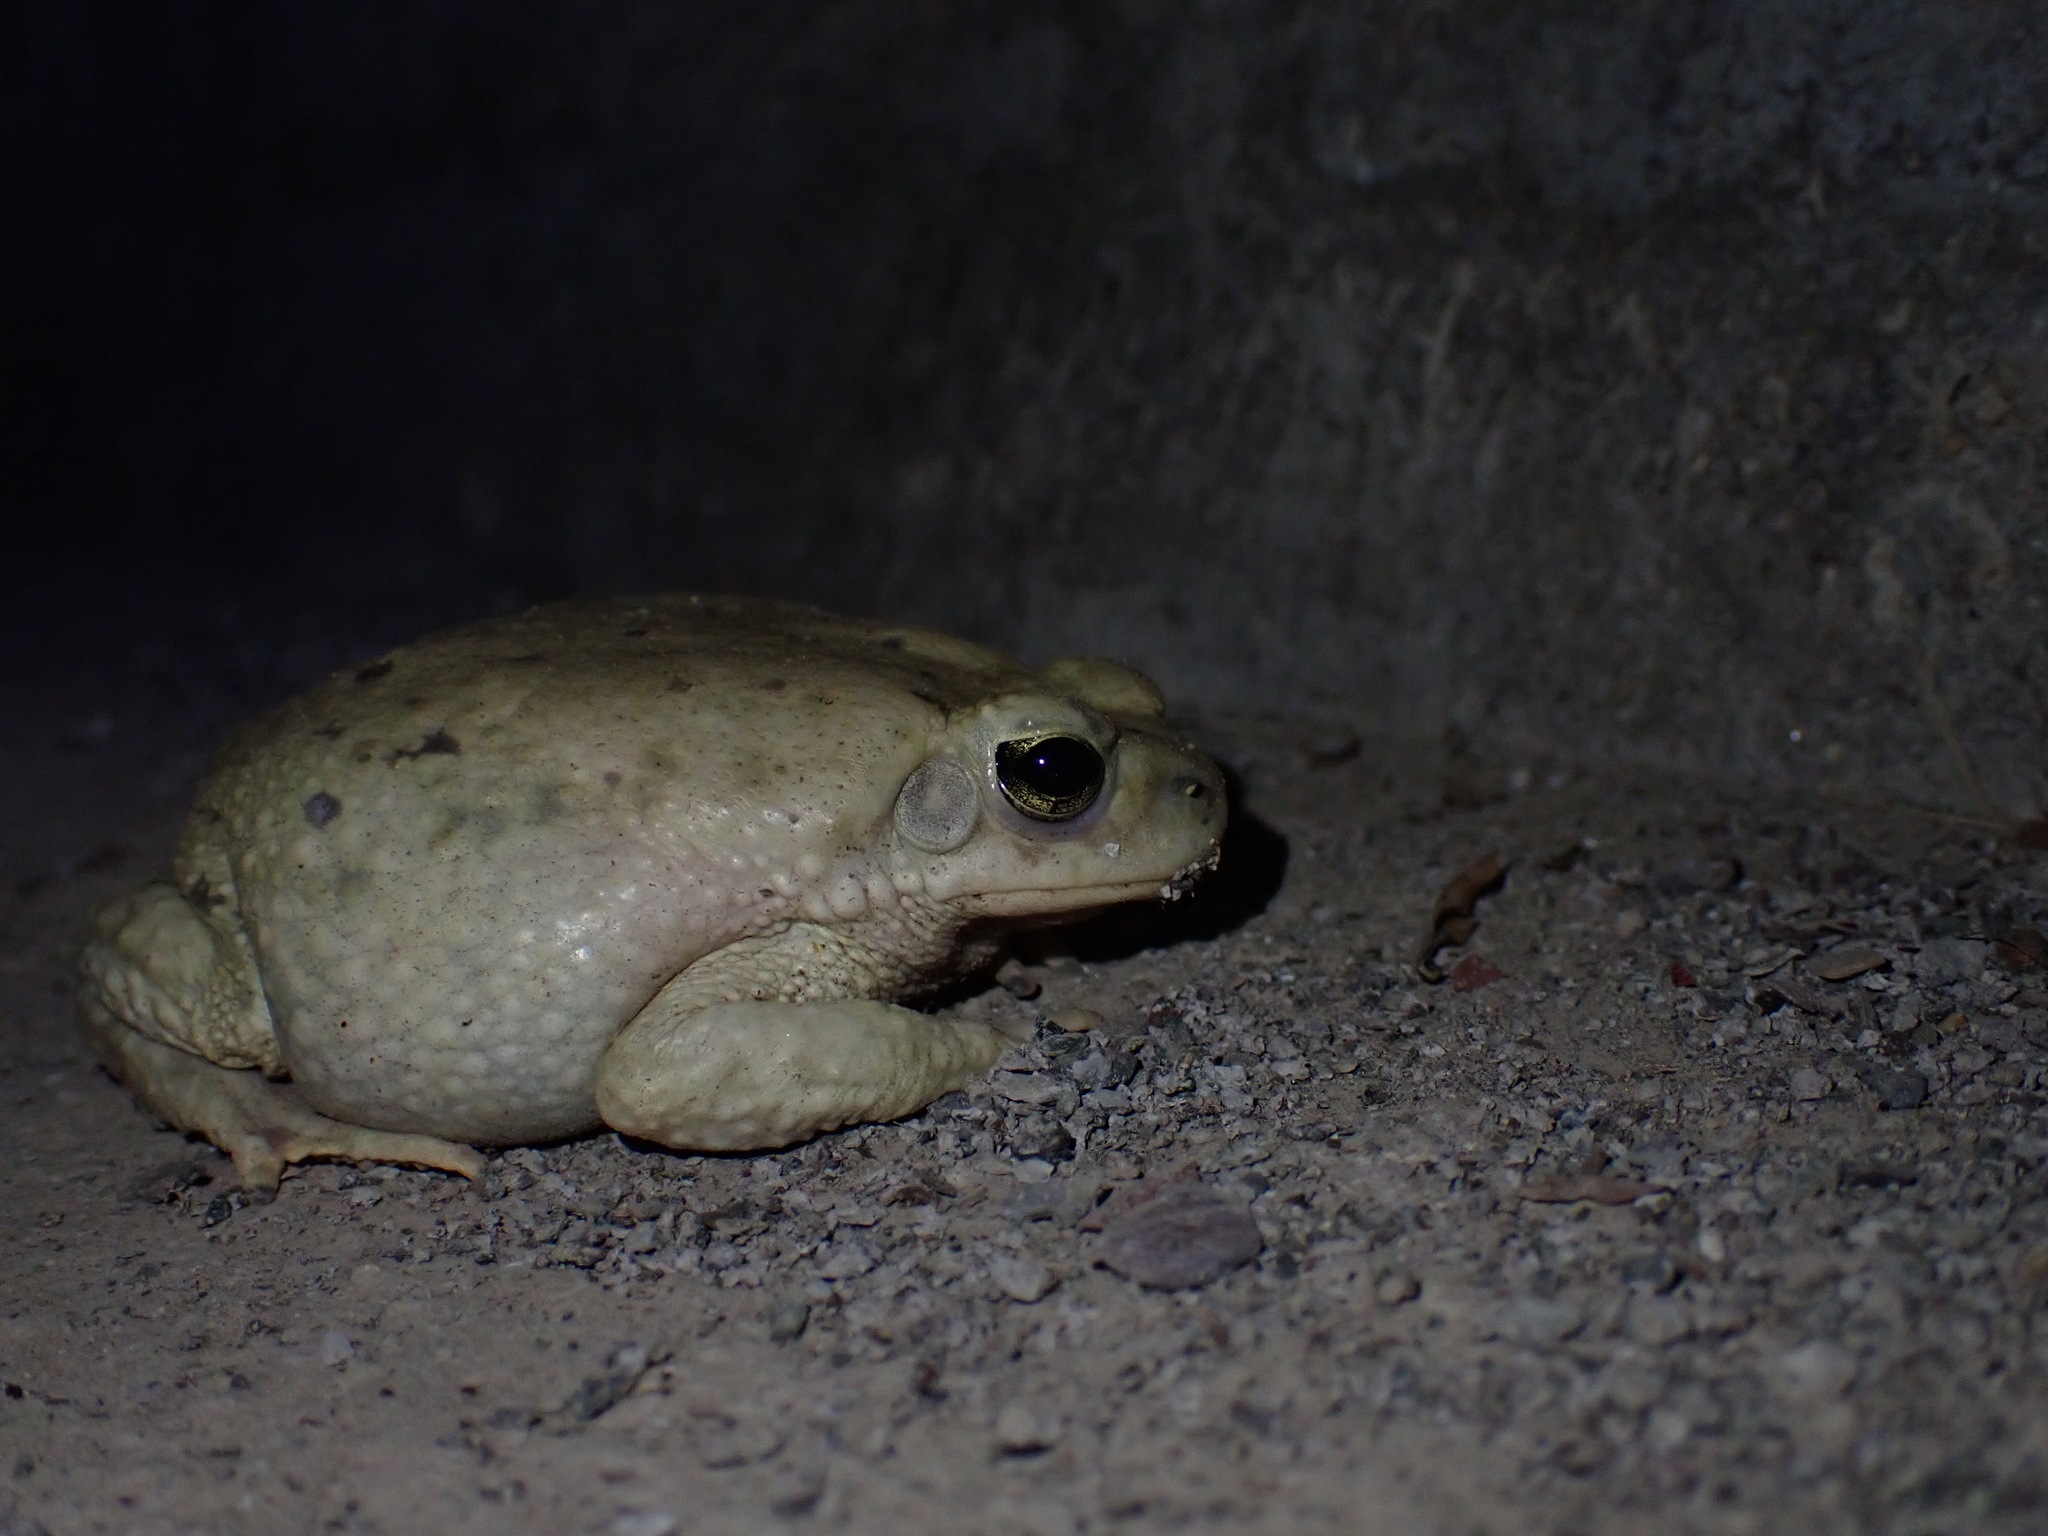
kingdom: Animalia
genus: Firouzophrynus
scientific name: Firouzophrynus
